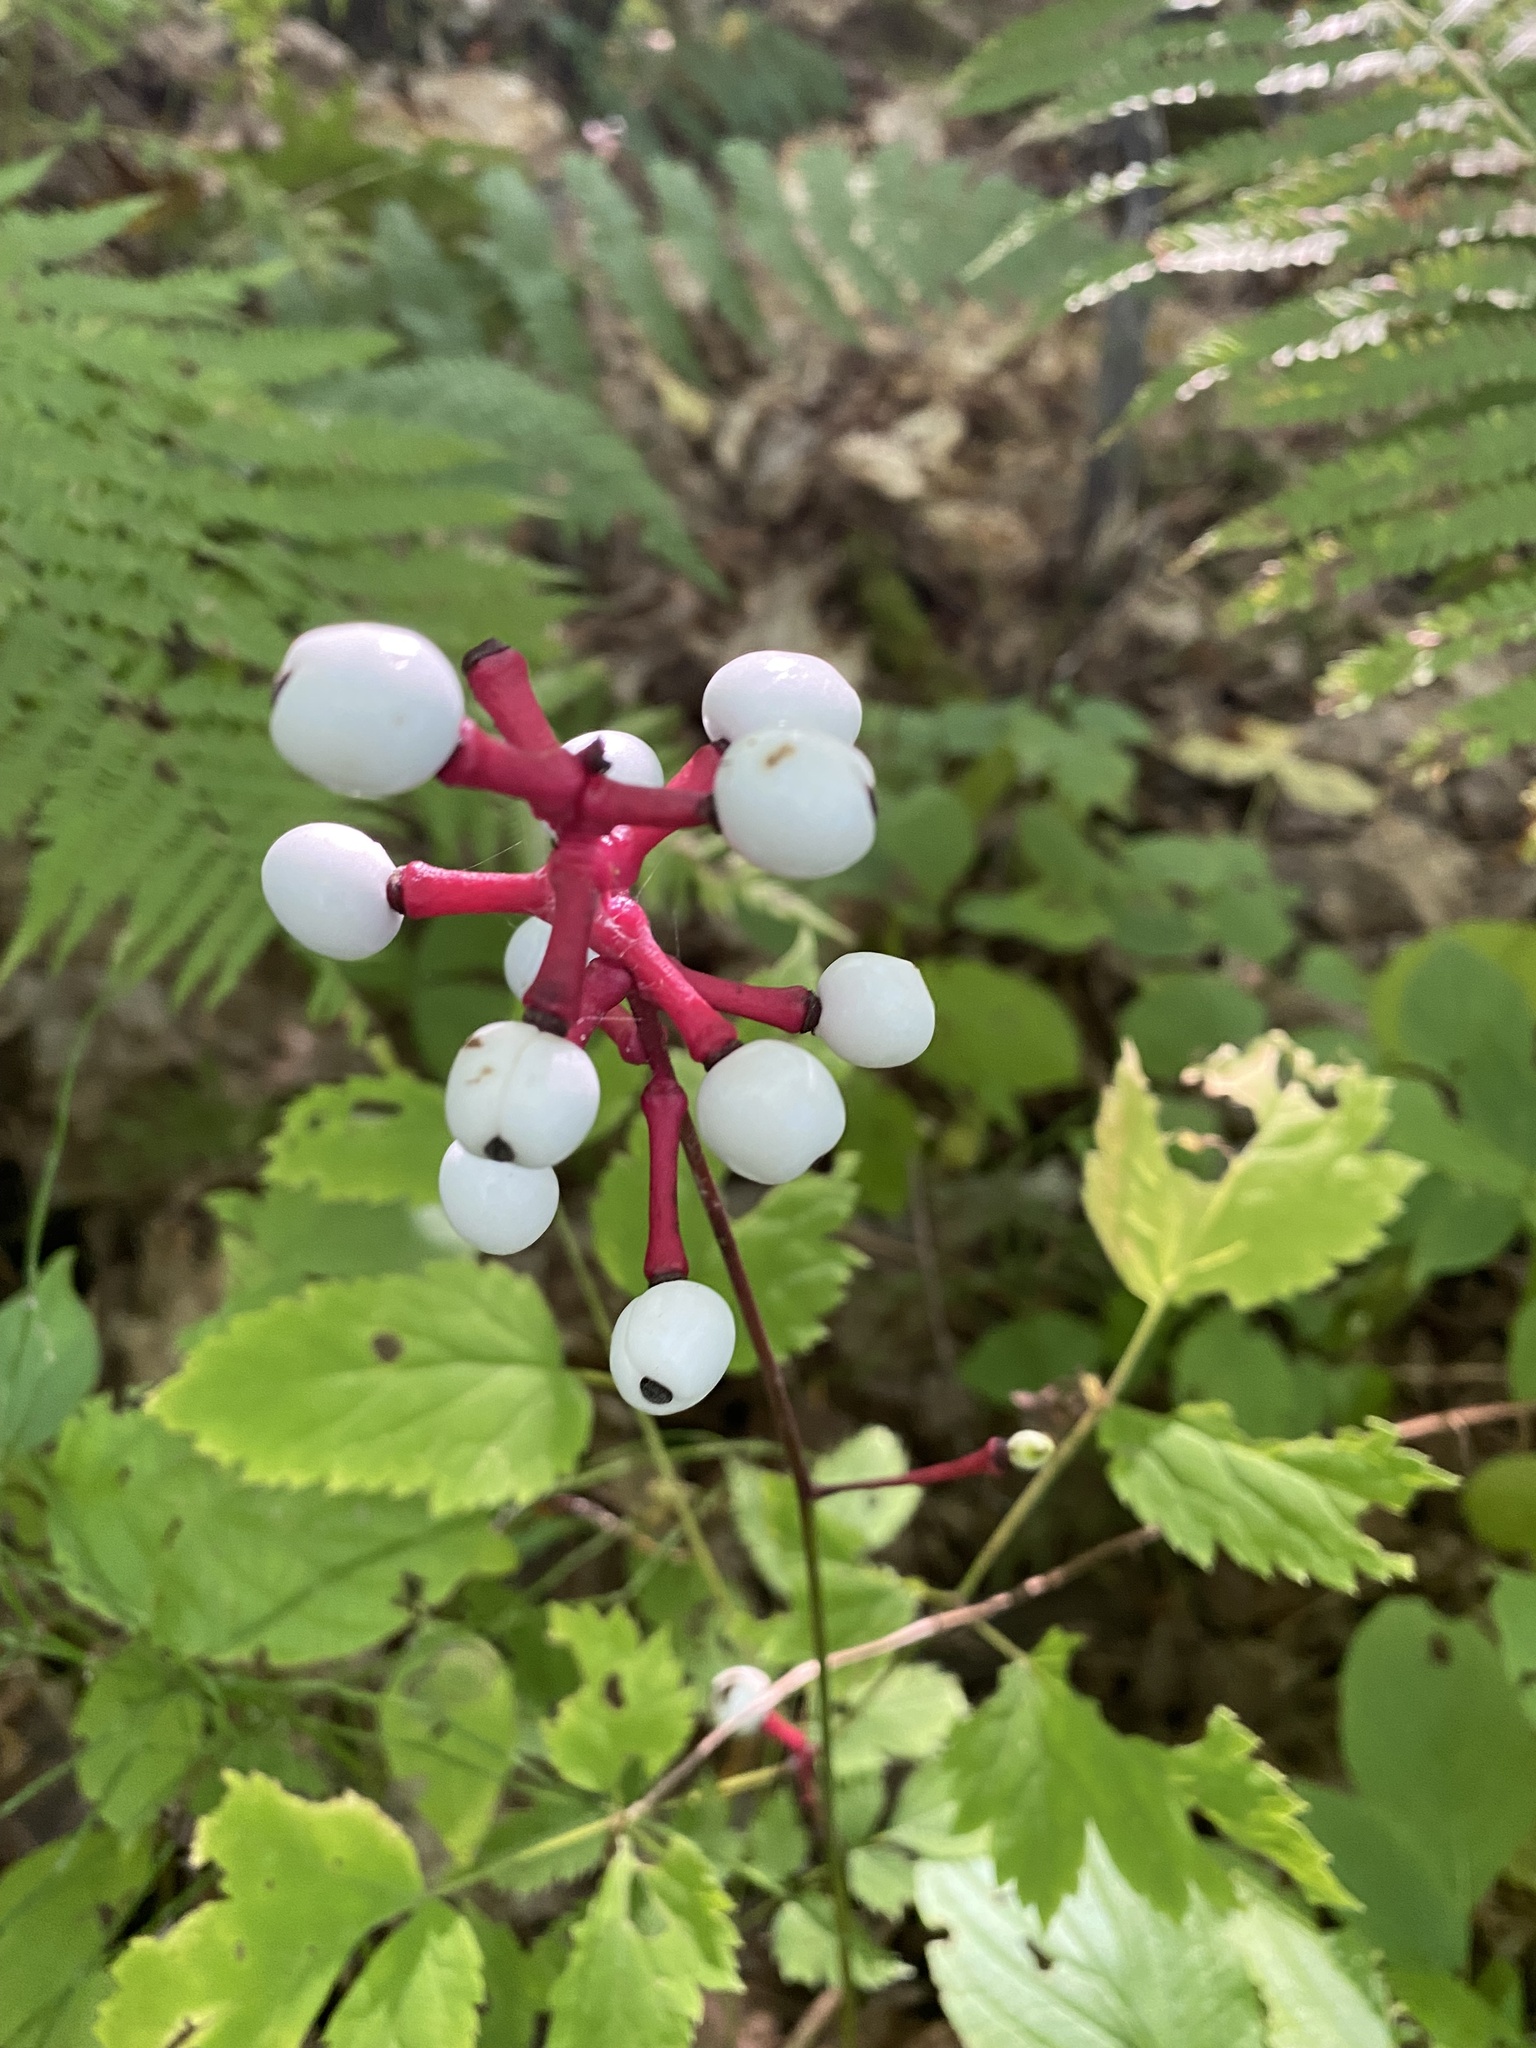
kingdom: Plantae
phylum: Tracheophyta
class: Magnoliopsida
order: Ranunculales
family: Ranunculaceae
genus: Actaea
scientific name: Actaea pachypoda
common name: Doll's-eyes
